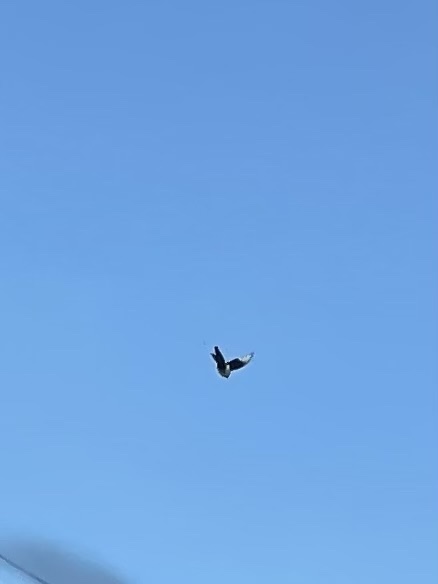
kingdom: Animalia
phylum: Chordata
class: Aves
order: Passeriformes
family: Corvidae
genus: Pica
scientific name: Pica pica
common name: Eurasian magpie
